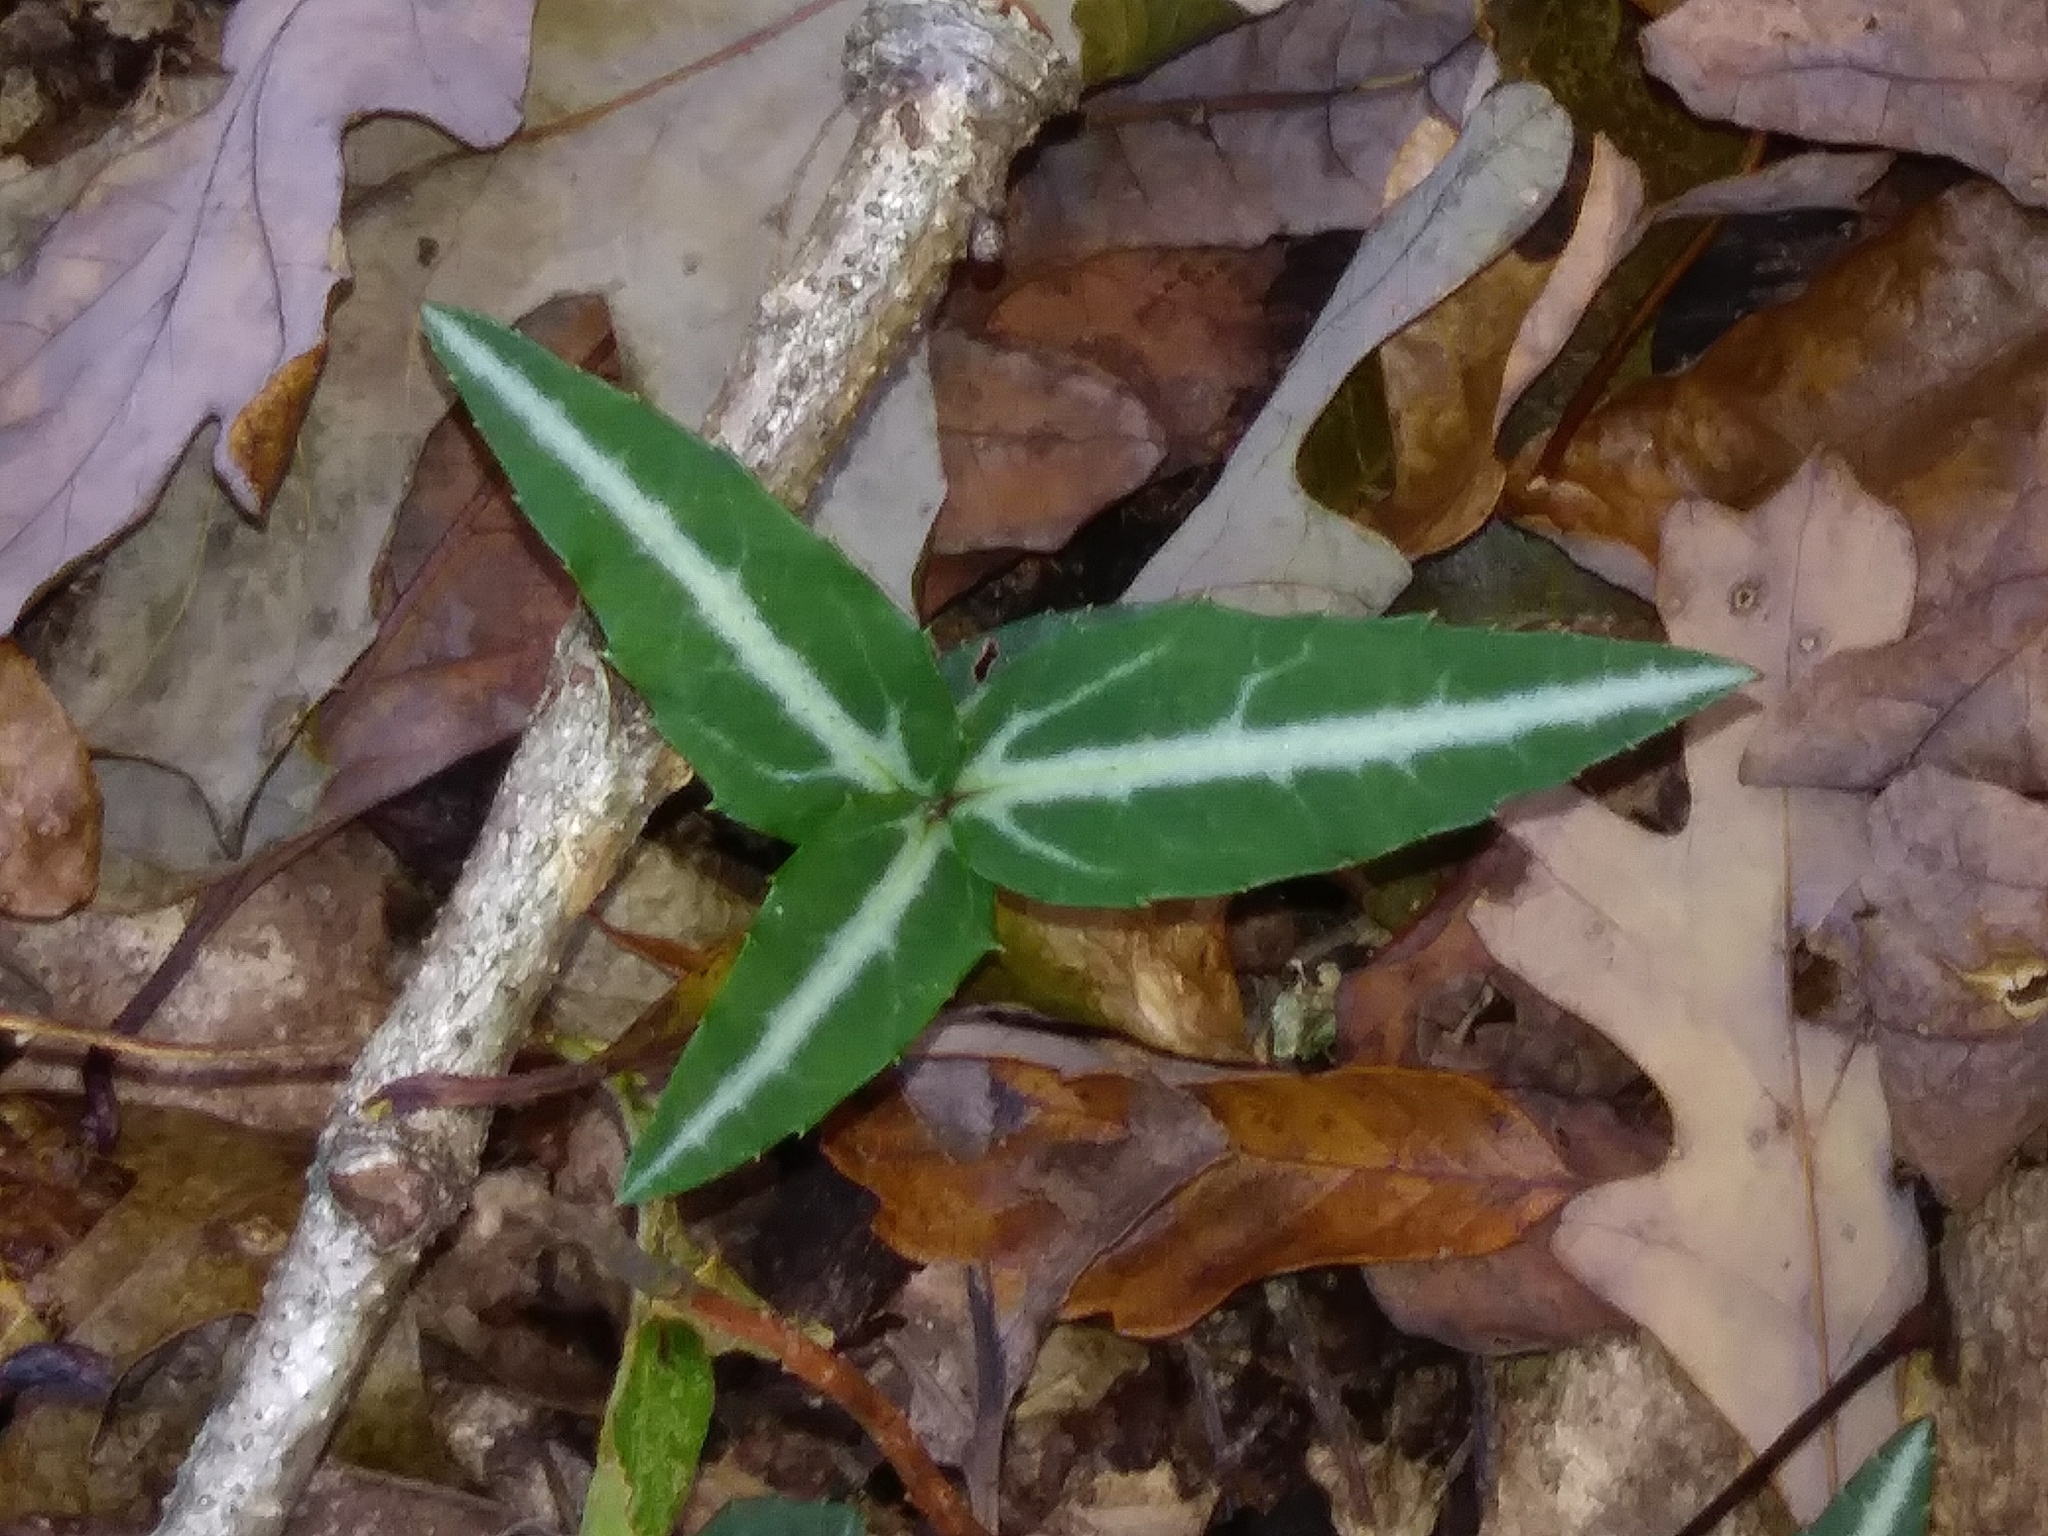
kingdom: Plantae
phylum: Tracheophyta
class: Magnoliopsida
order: Ericales
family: Ericaceae
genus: Chimaphila
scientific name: Chimaphila maculata
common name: Spotted pipsissewa
